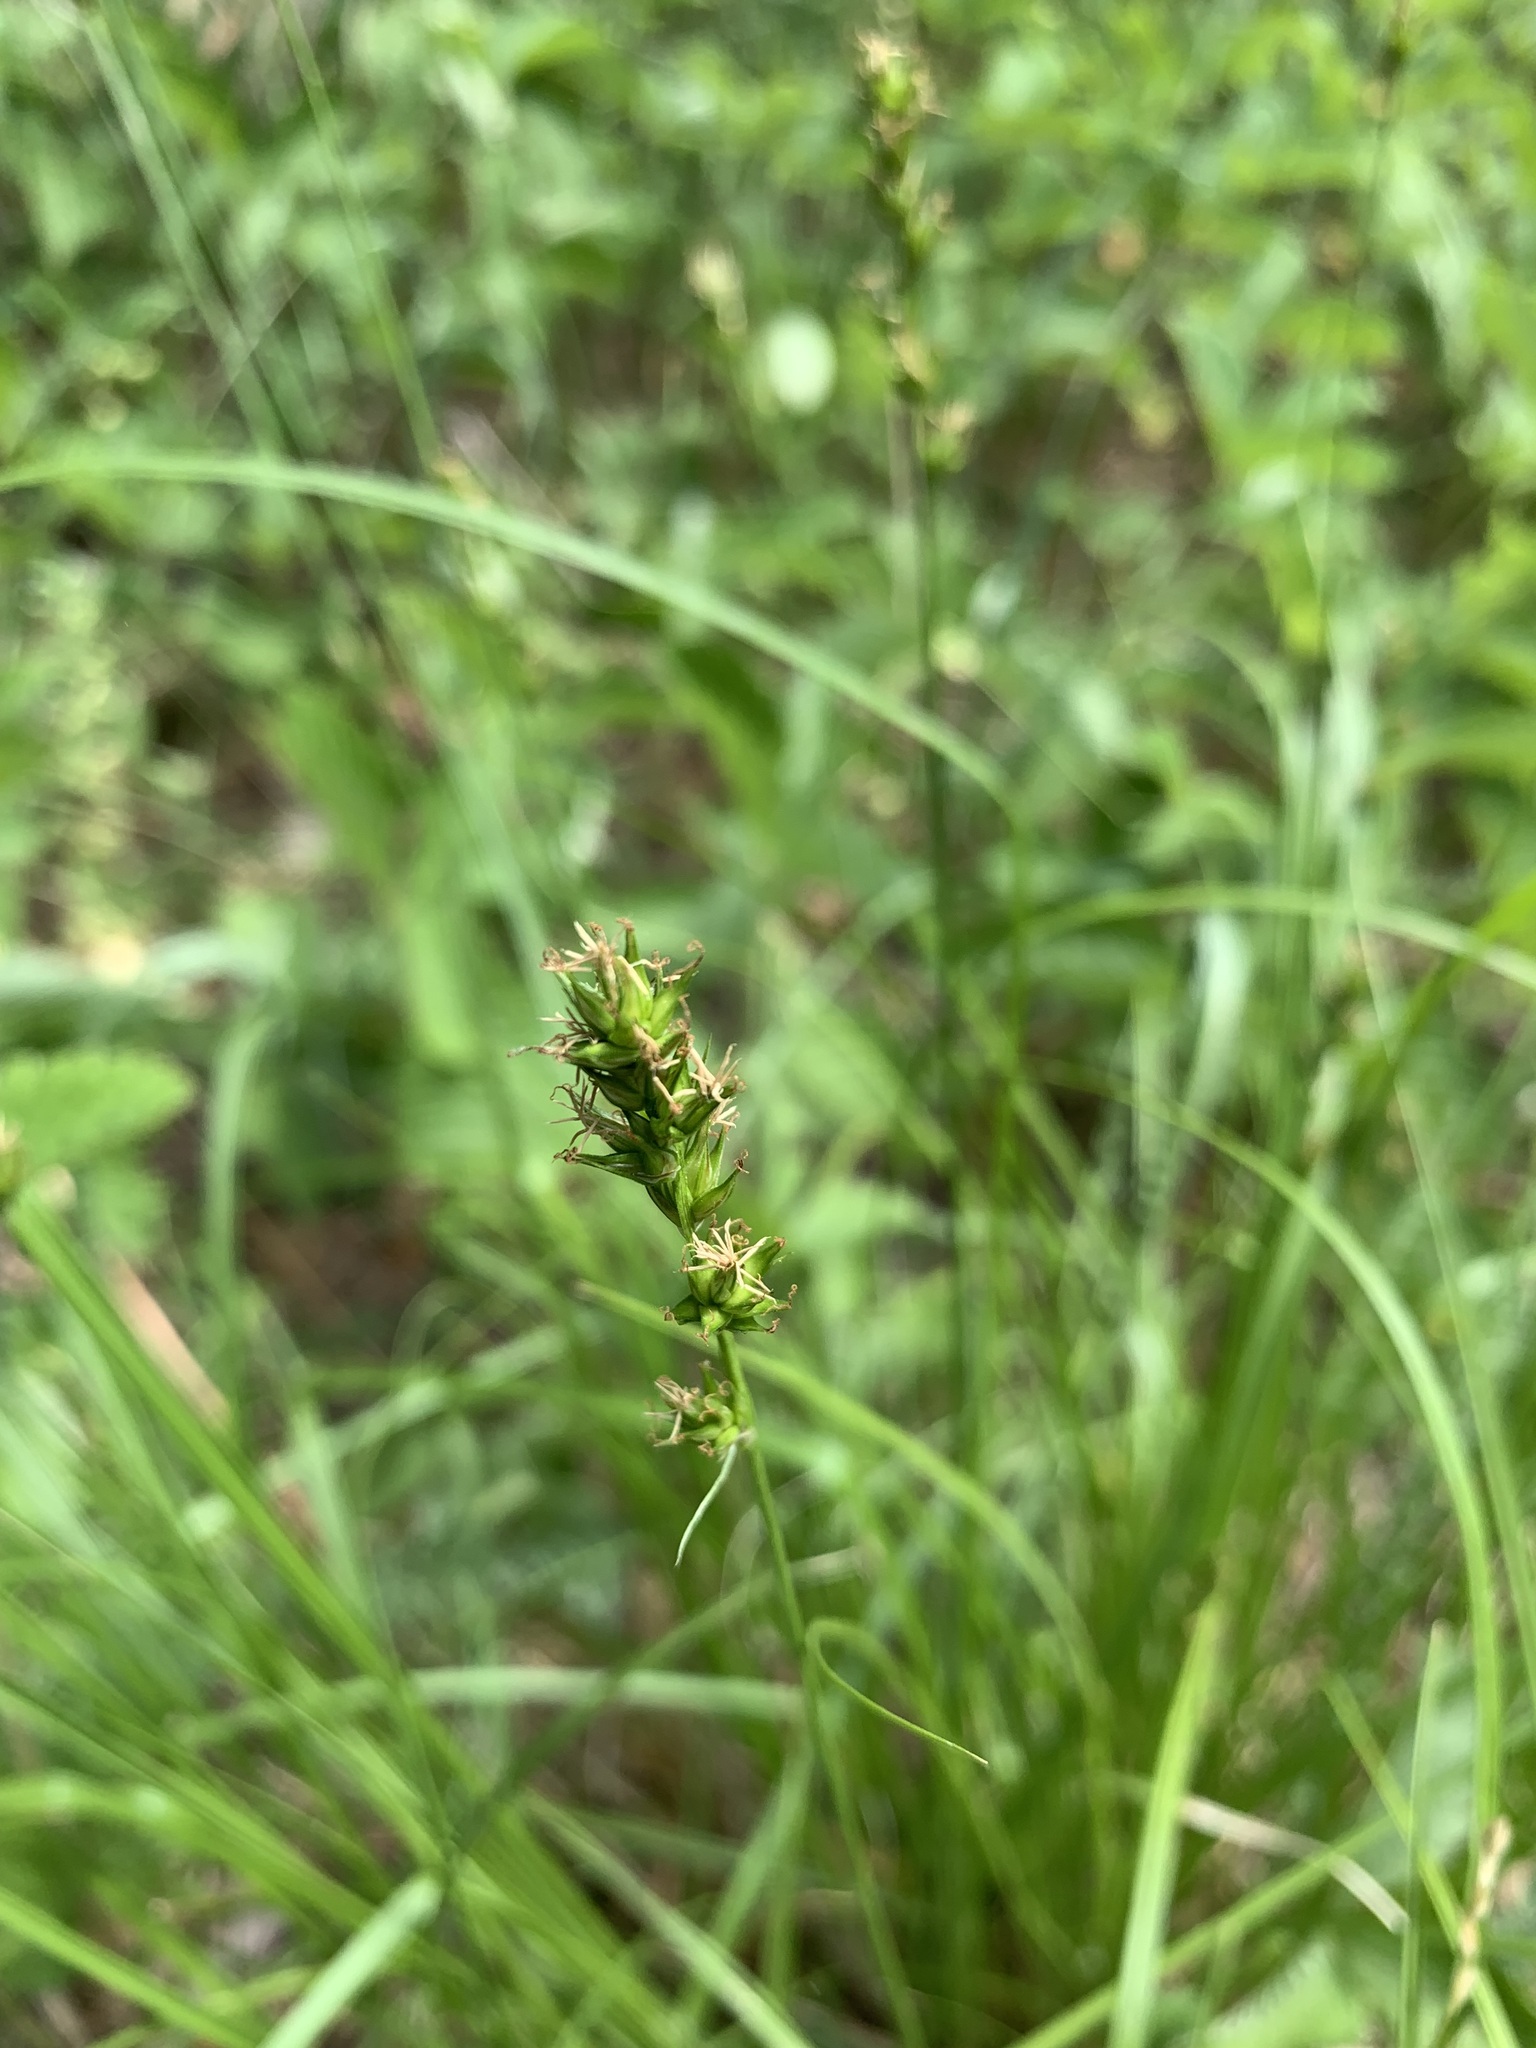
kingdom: Plantae
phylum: Tracheophyta
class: Liliopsida
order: Poales
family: Cyperaceae
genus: Carex
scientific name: Carex spicata
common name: Spiked sedge
